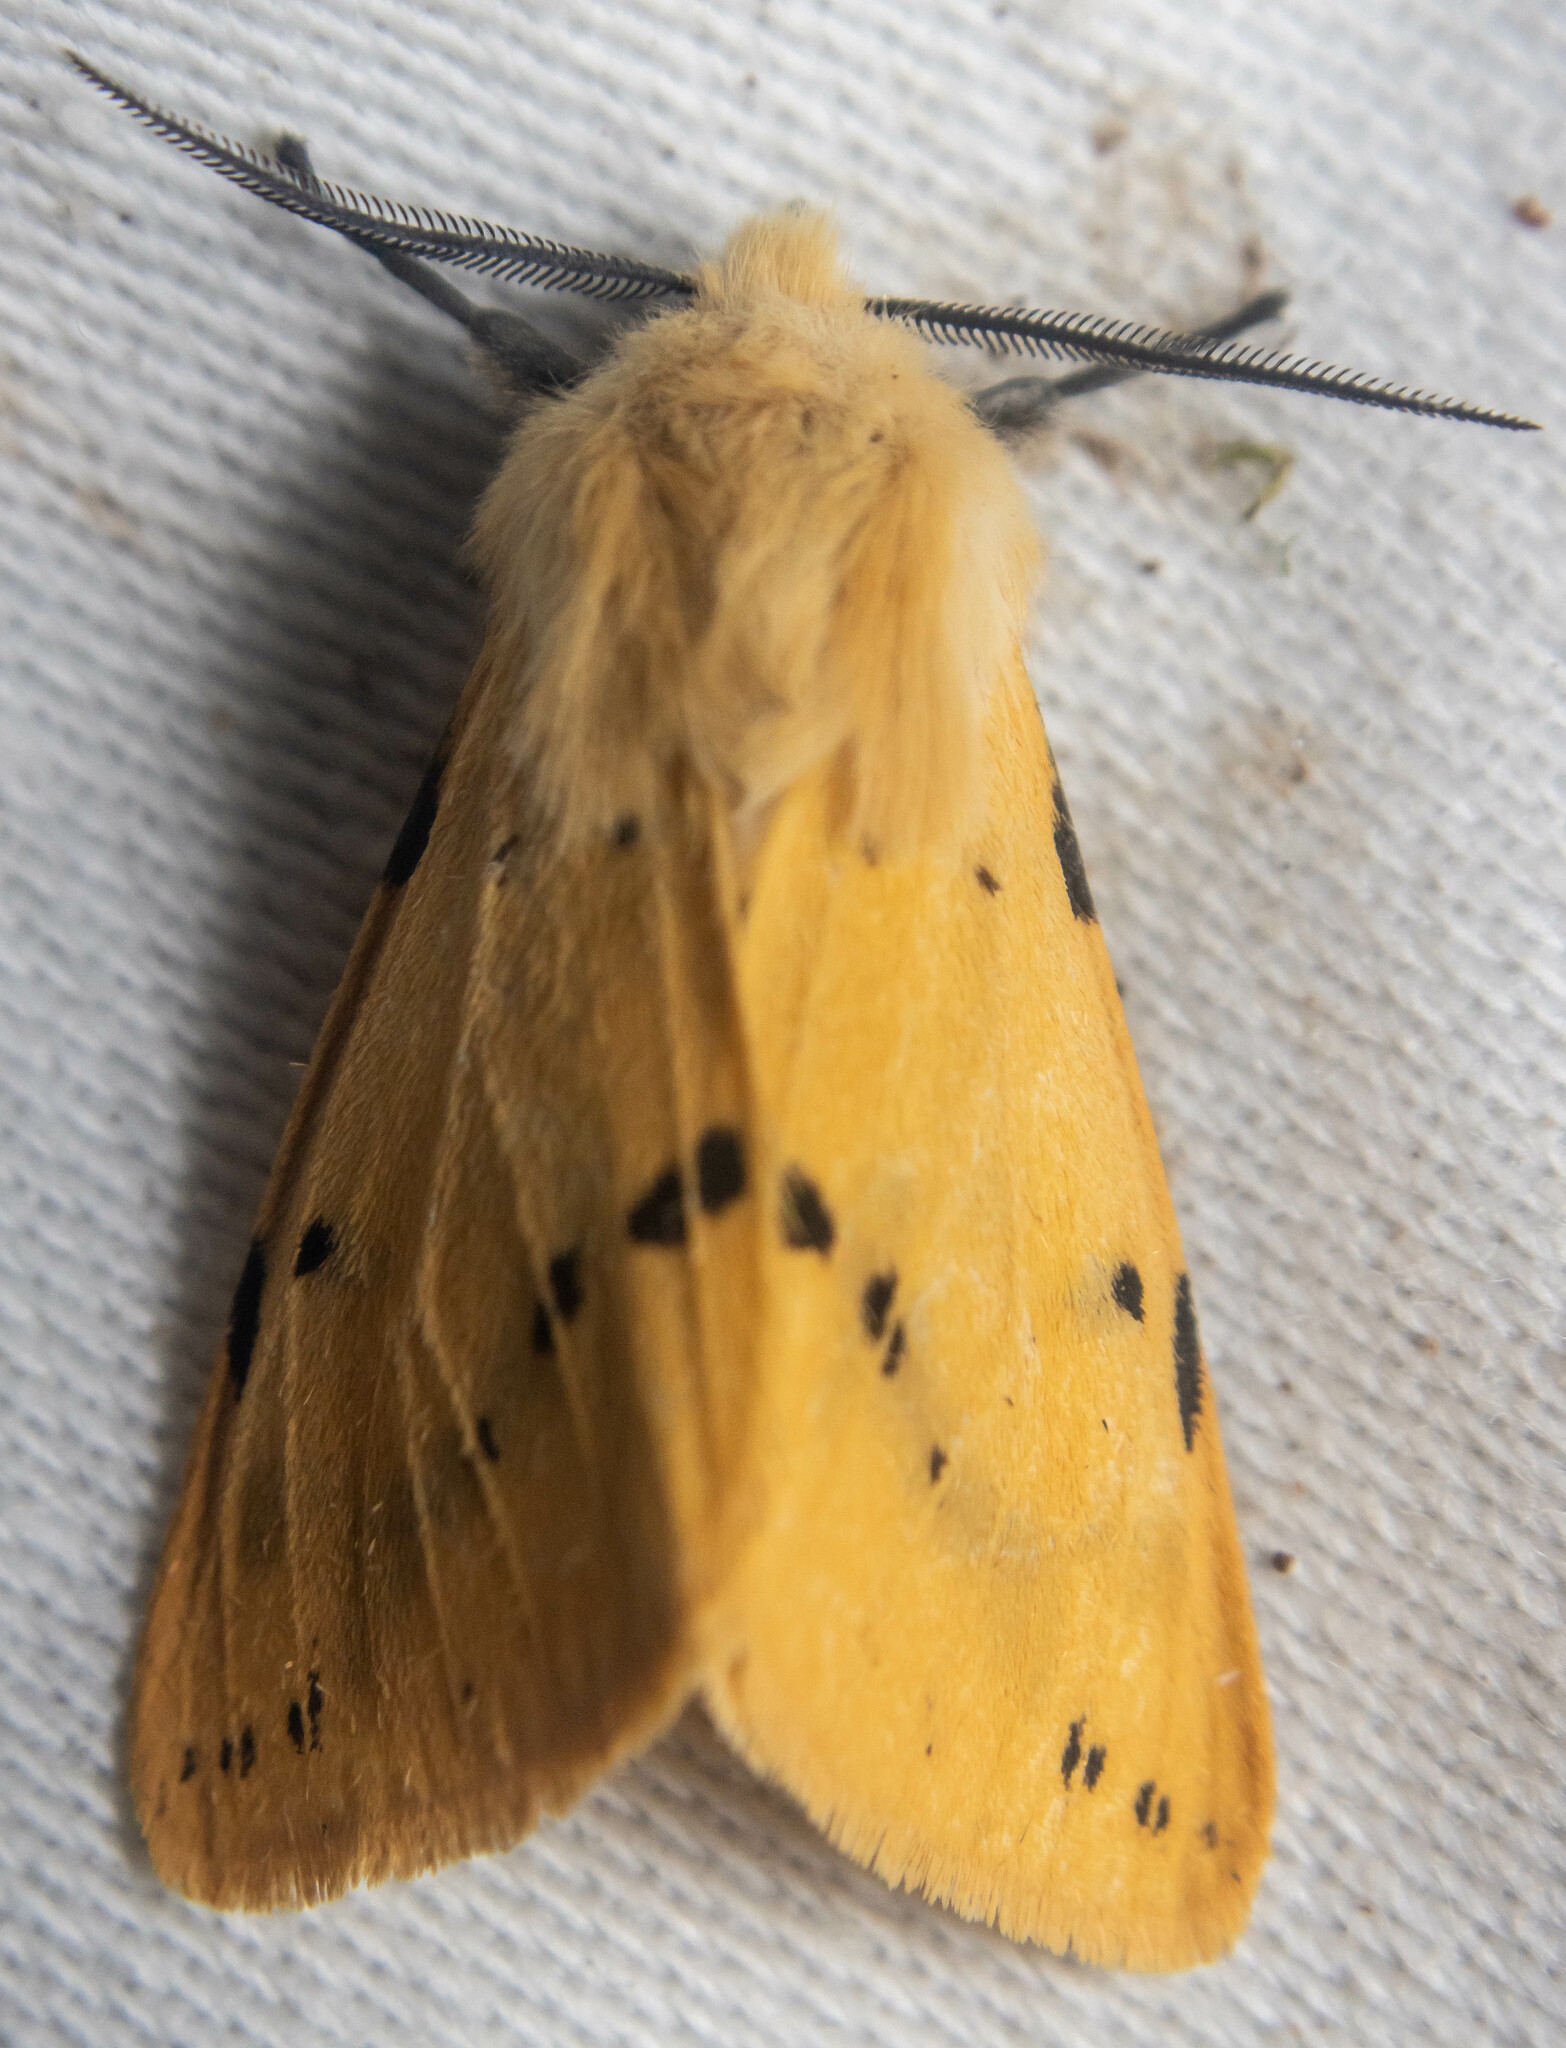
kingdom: Animalia
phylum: Arthropoda
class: Insecta
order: Lepidoptera
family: Erebidae
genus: Spilarctia
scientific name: Spilarctia lutea
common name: Buff ermine
